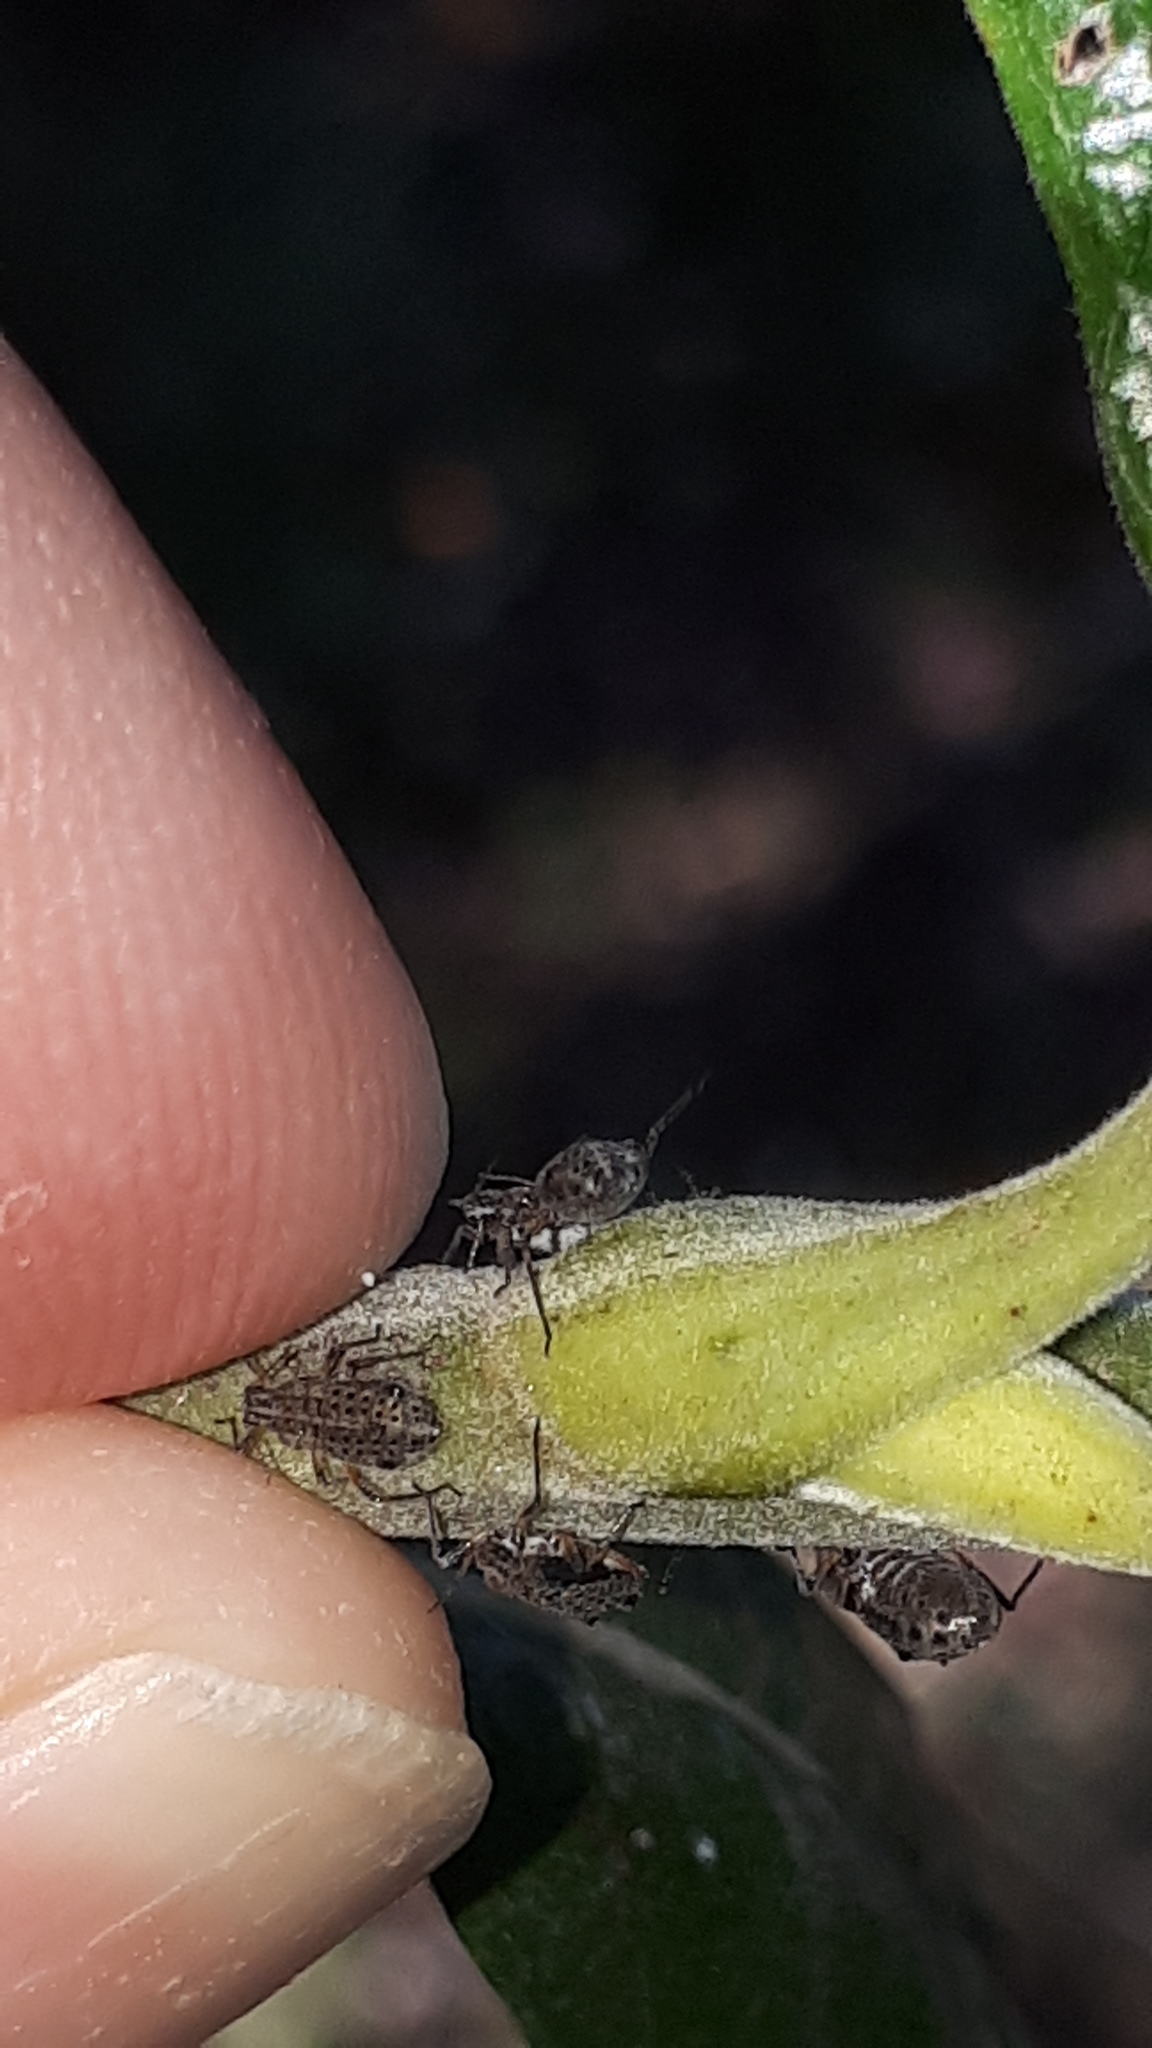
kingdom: Animalia
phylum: Arthropoda
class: Insecta
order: Hemiptera
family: Aphididae
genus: Tuberolachnus
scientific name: Tuberolachnus salignus
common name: Giant willow aphid
